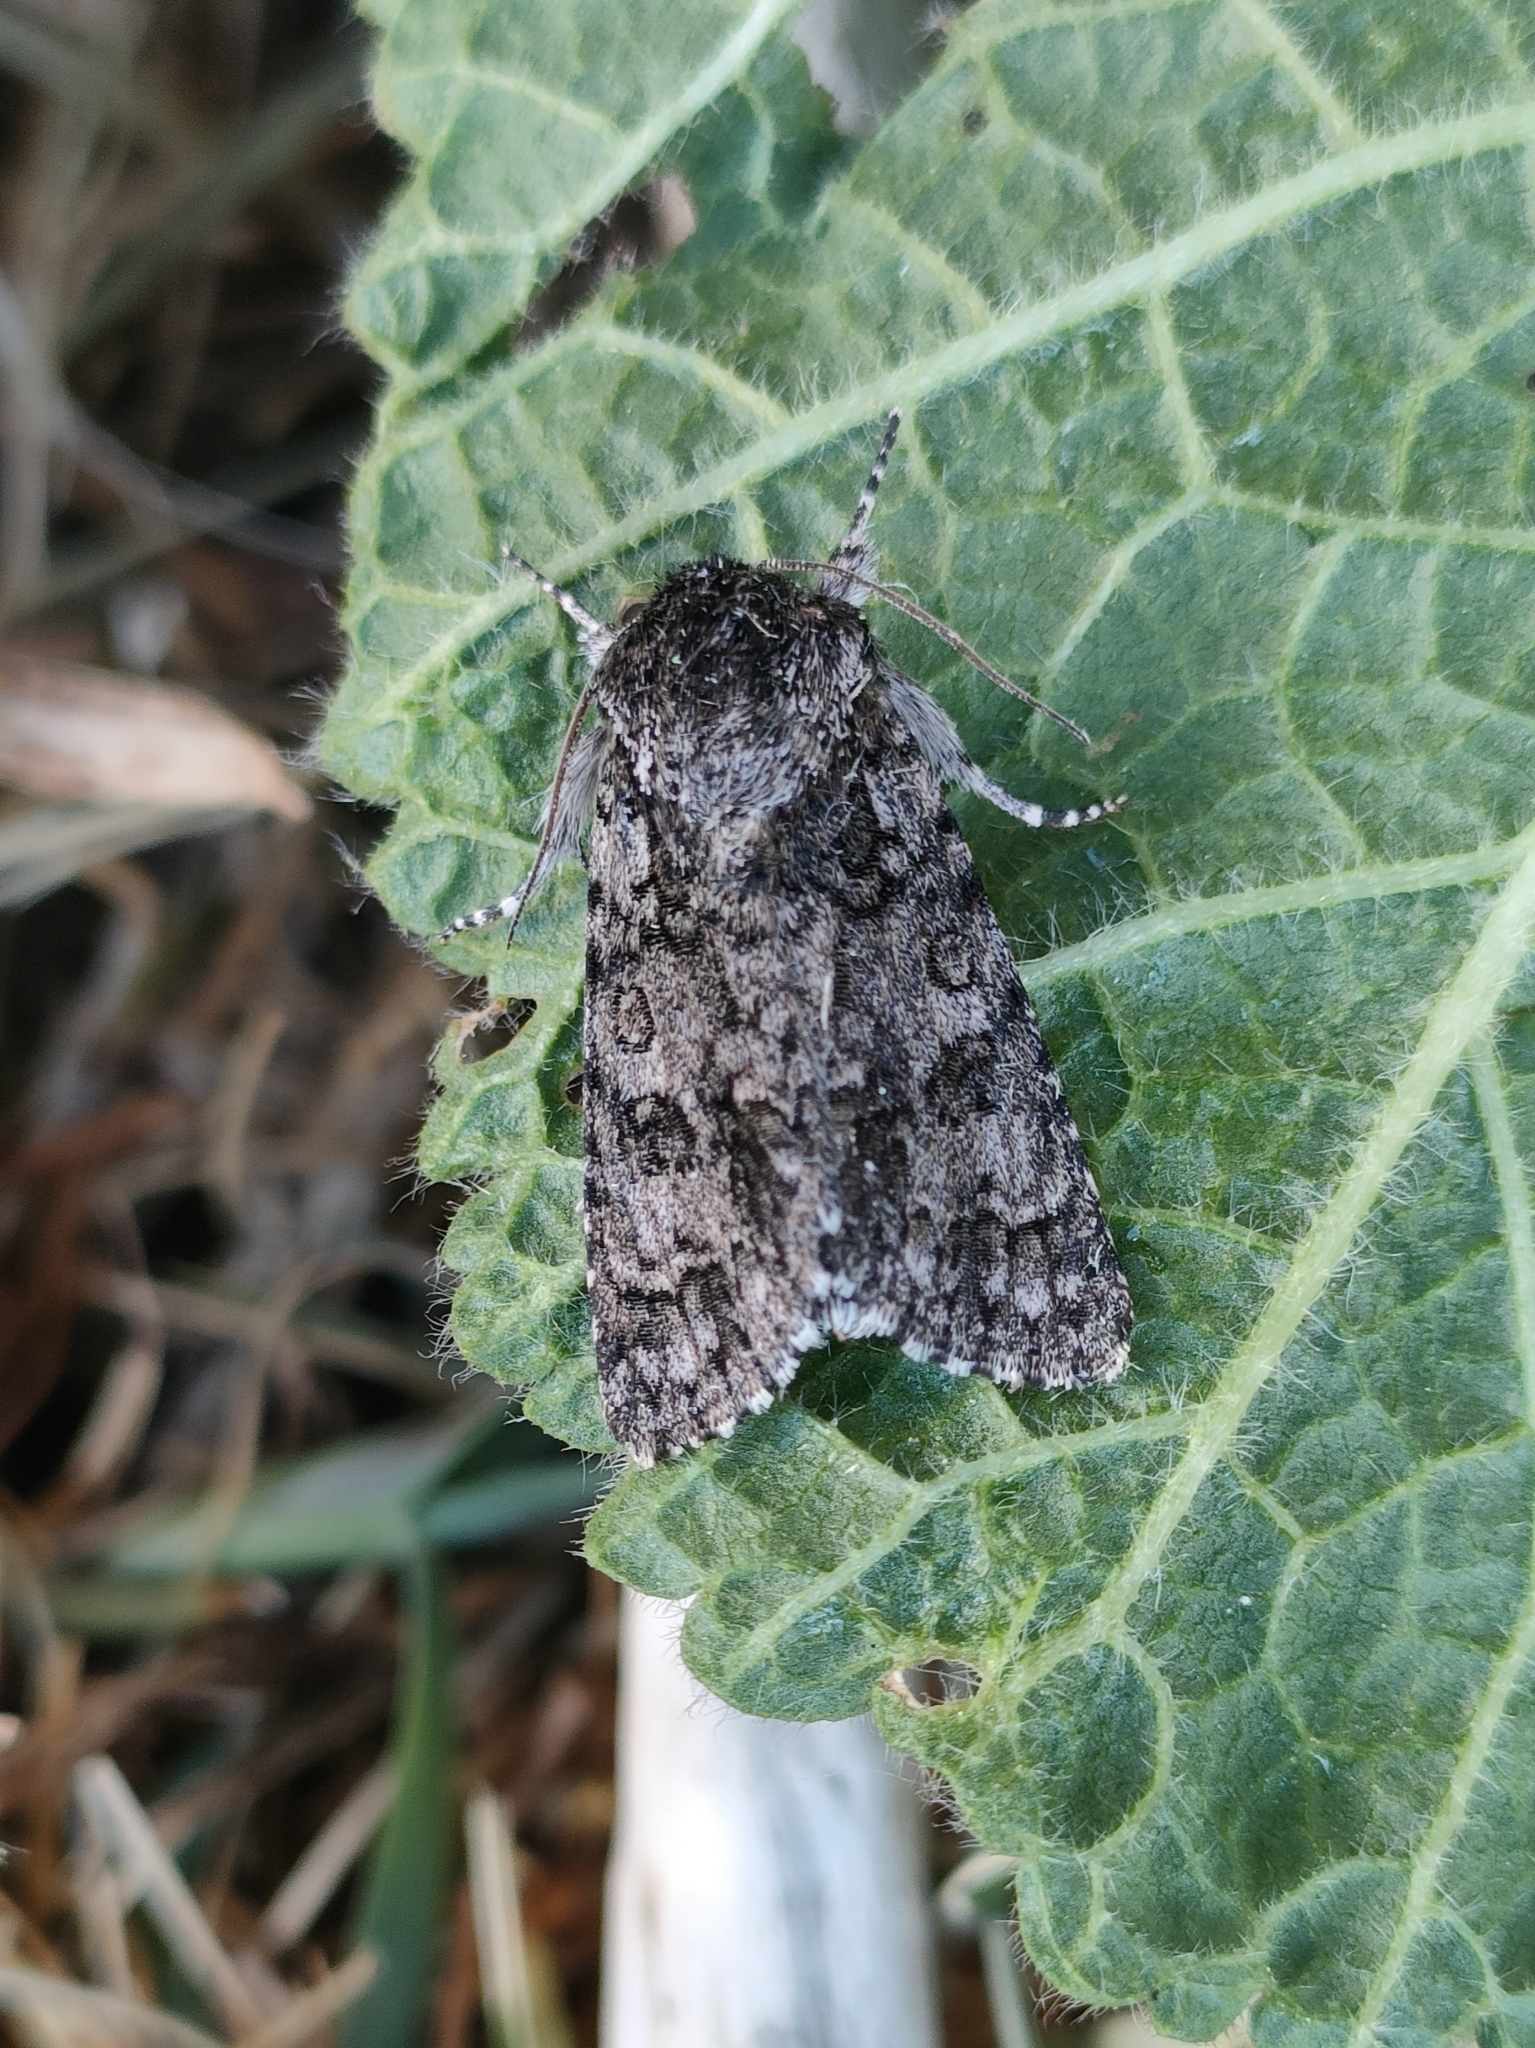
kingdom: Animalia
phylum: Arthropoda
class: Insecta
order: Lepidoptera
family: Noctuidae
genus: Acronicta
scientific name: Acronicta rumicis
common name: Knot grass
